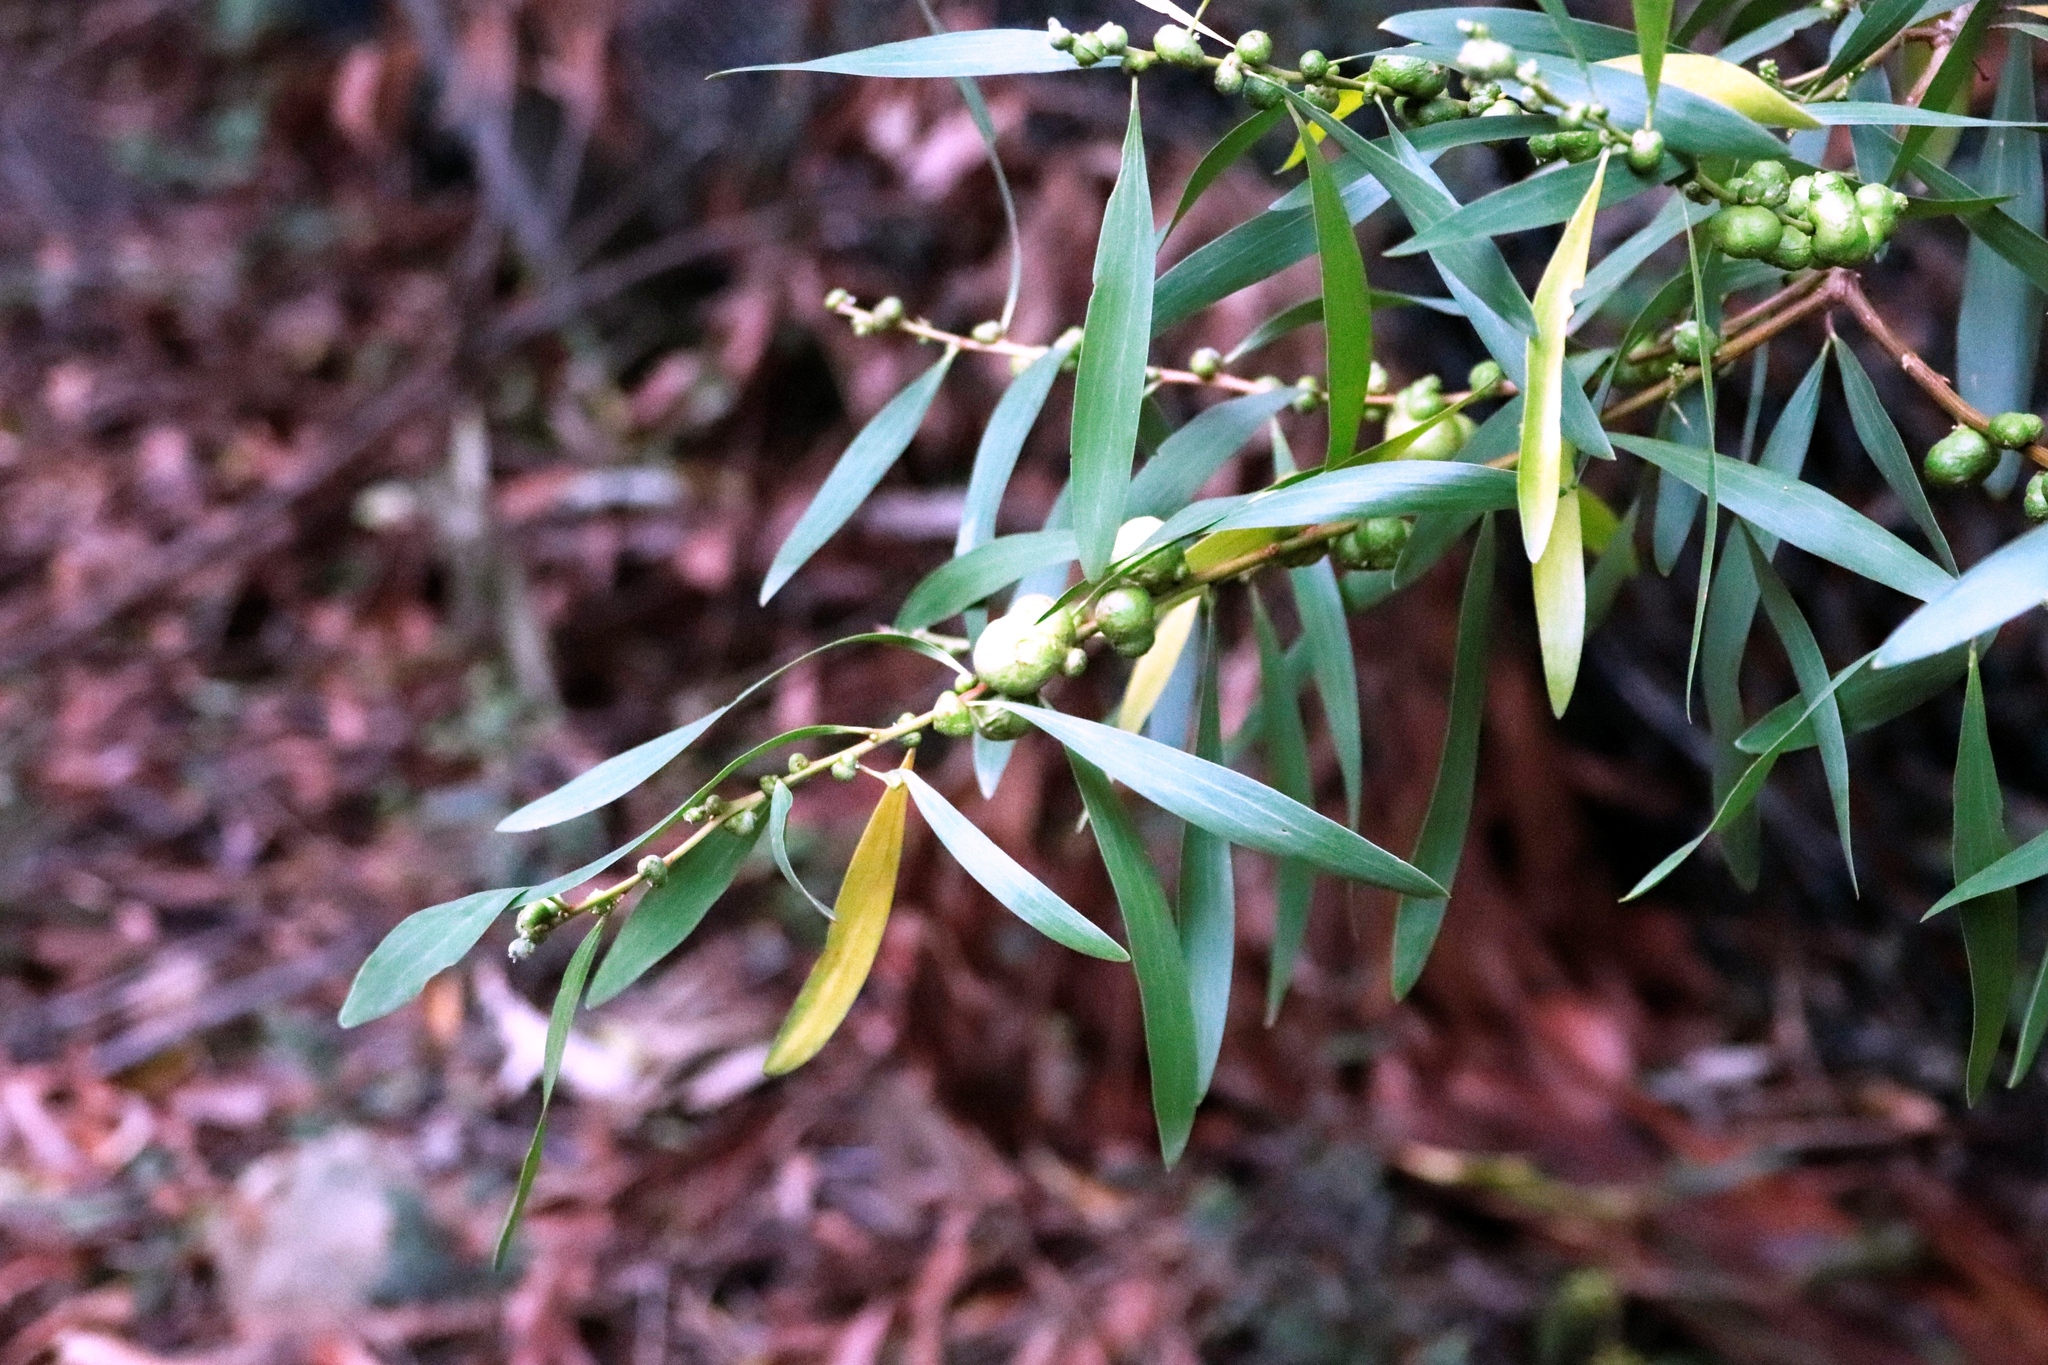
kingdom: Animalia
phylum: Arthropoda
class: Insecta
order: Hymenoptera
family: Pteromalidae
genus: Trichilogaster
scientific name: Trichilogaster acaciaelongifoliae
